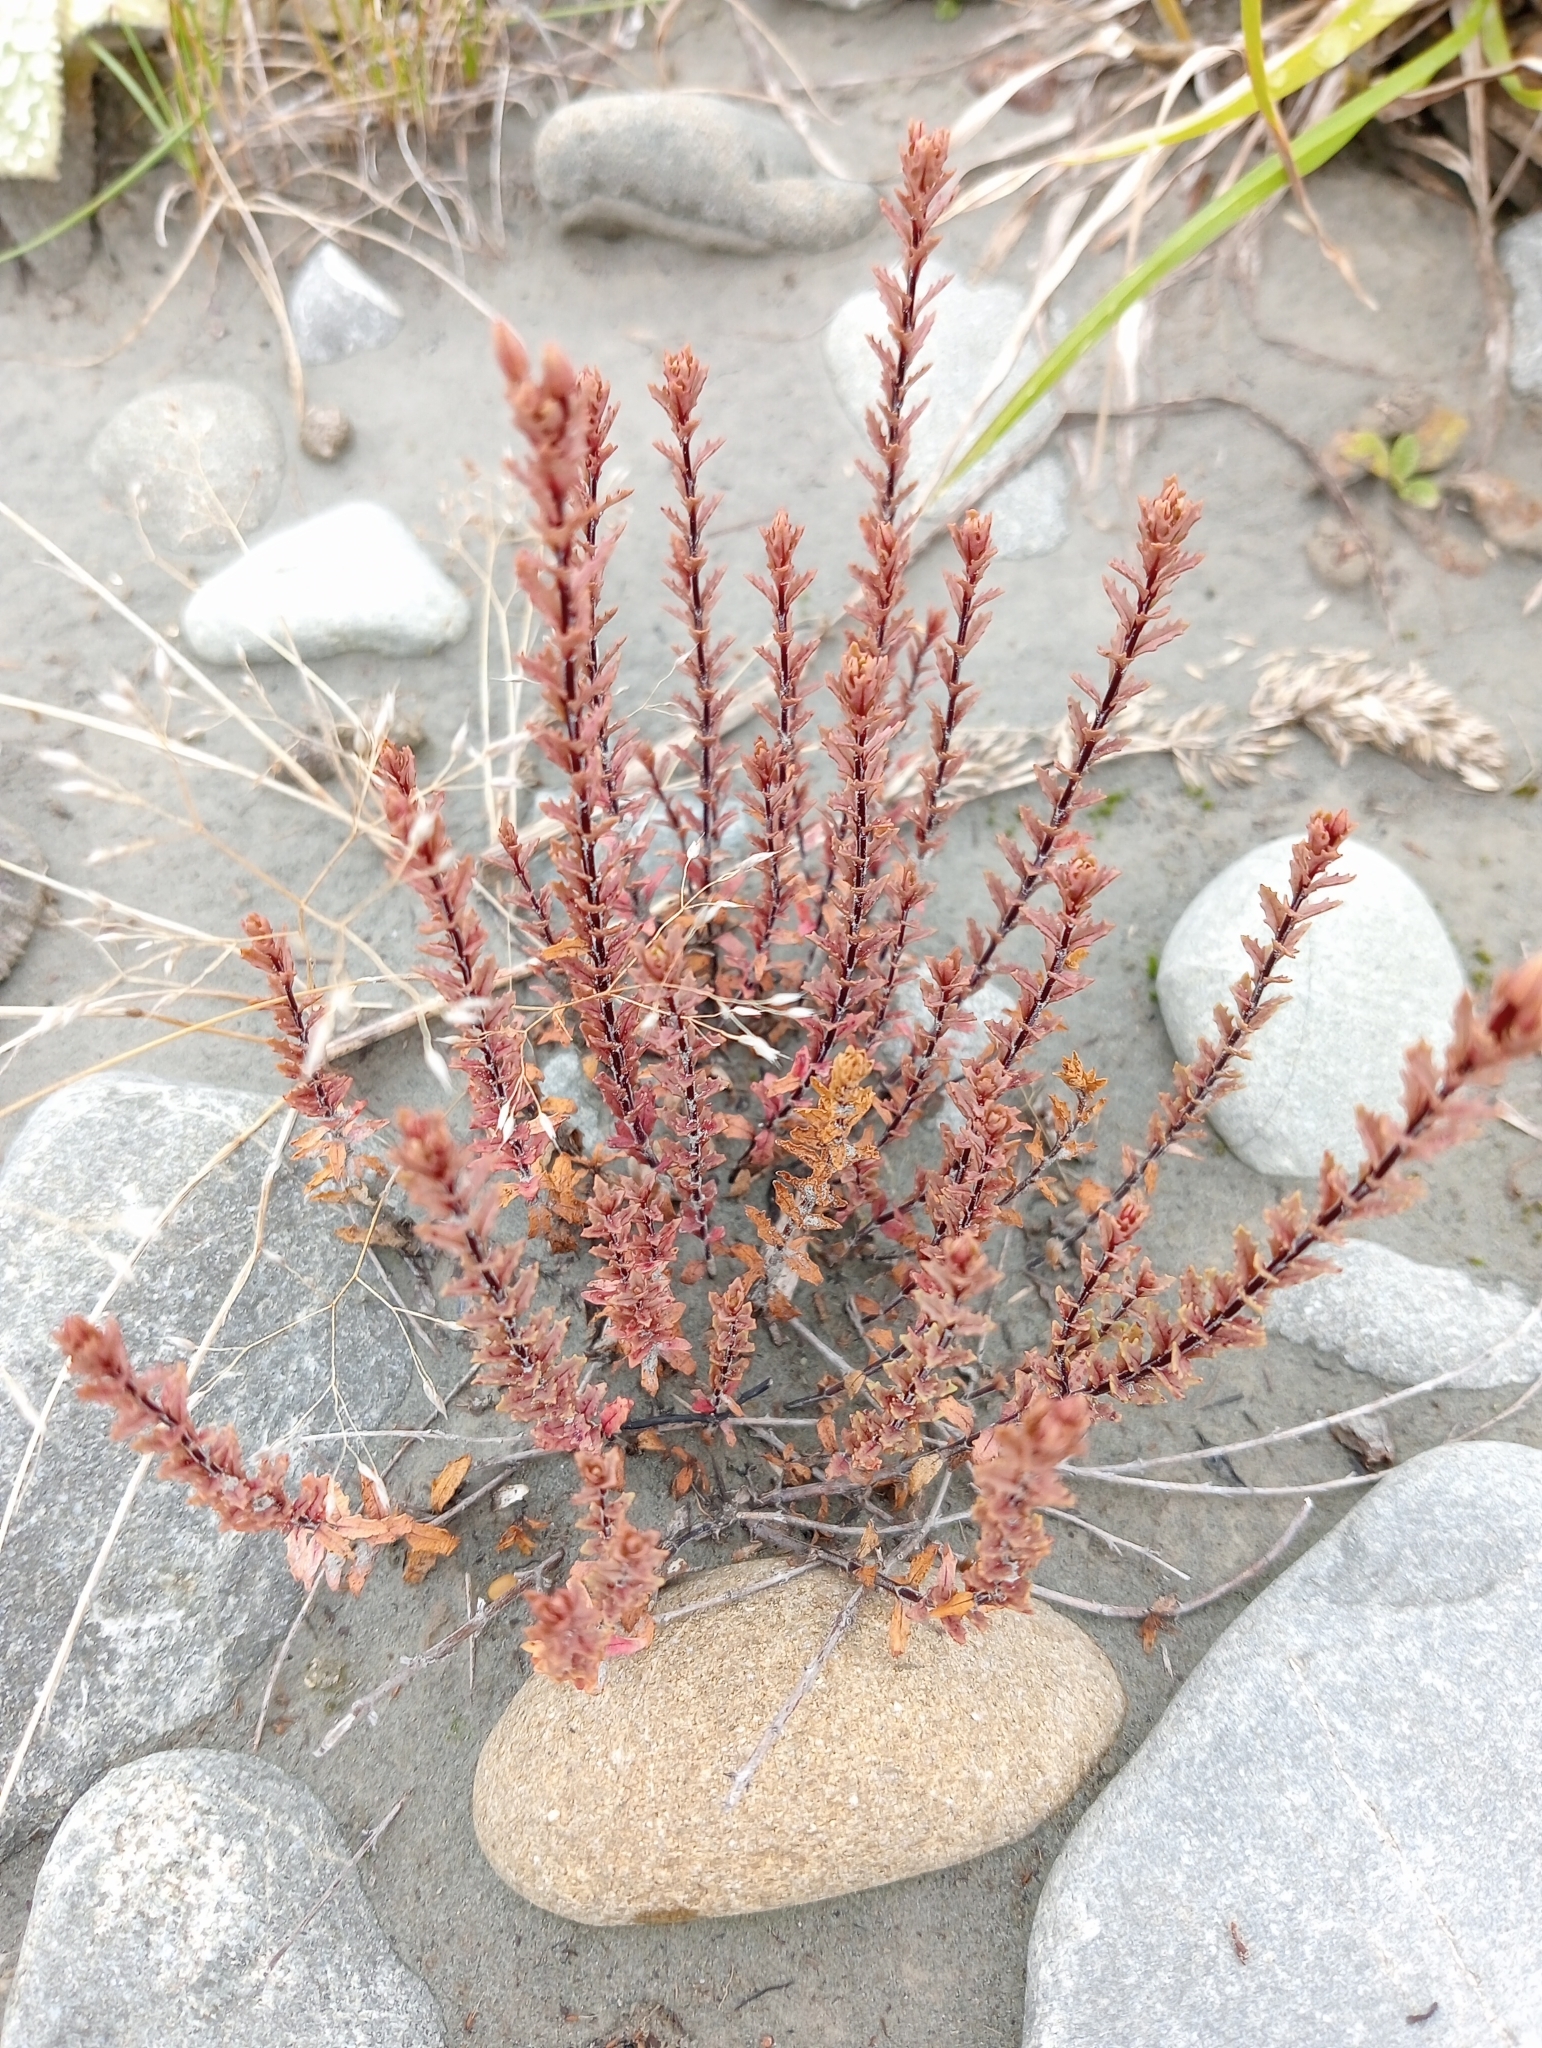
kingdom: Plantae
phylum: Tracheophyta
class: Magnoliopsida
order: Myrtales
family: Onagraceae
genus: Epilobium
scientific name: Epilobium melanocaulon
